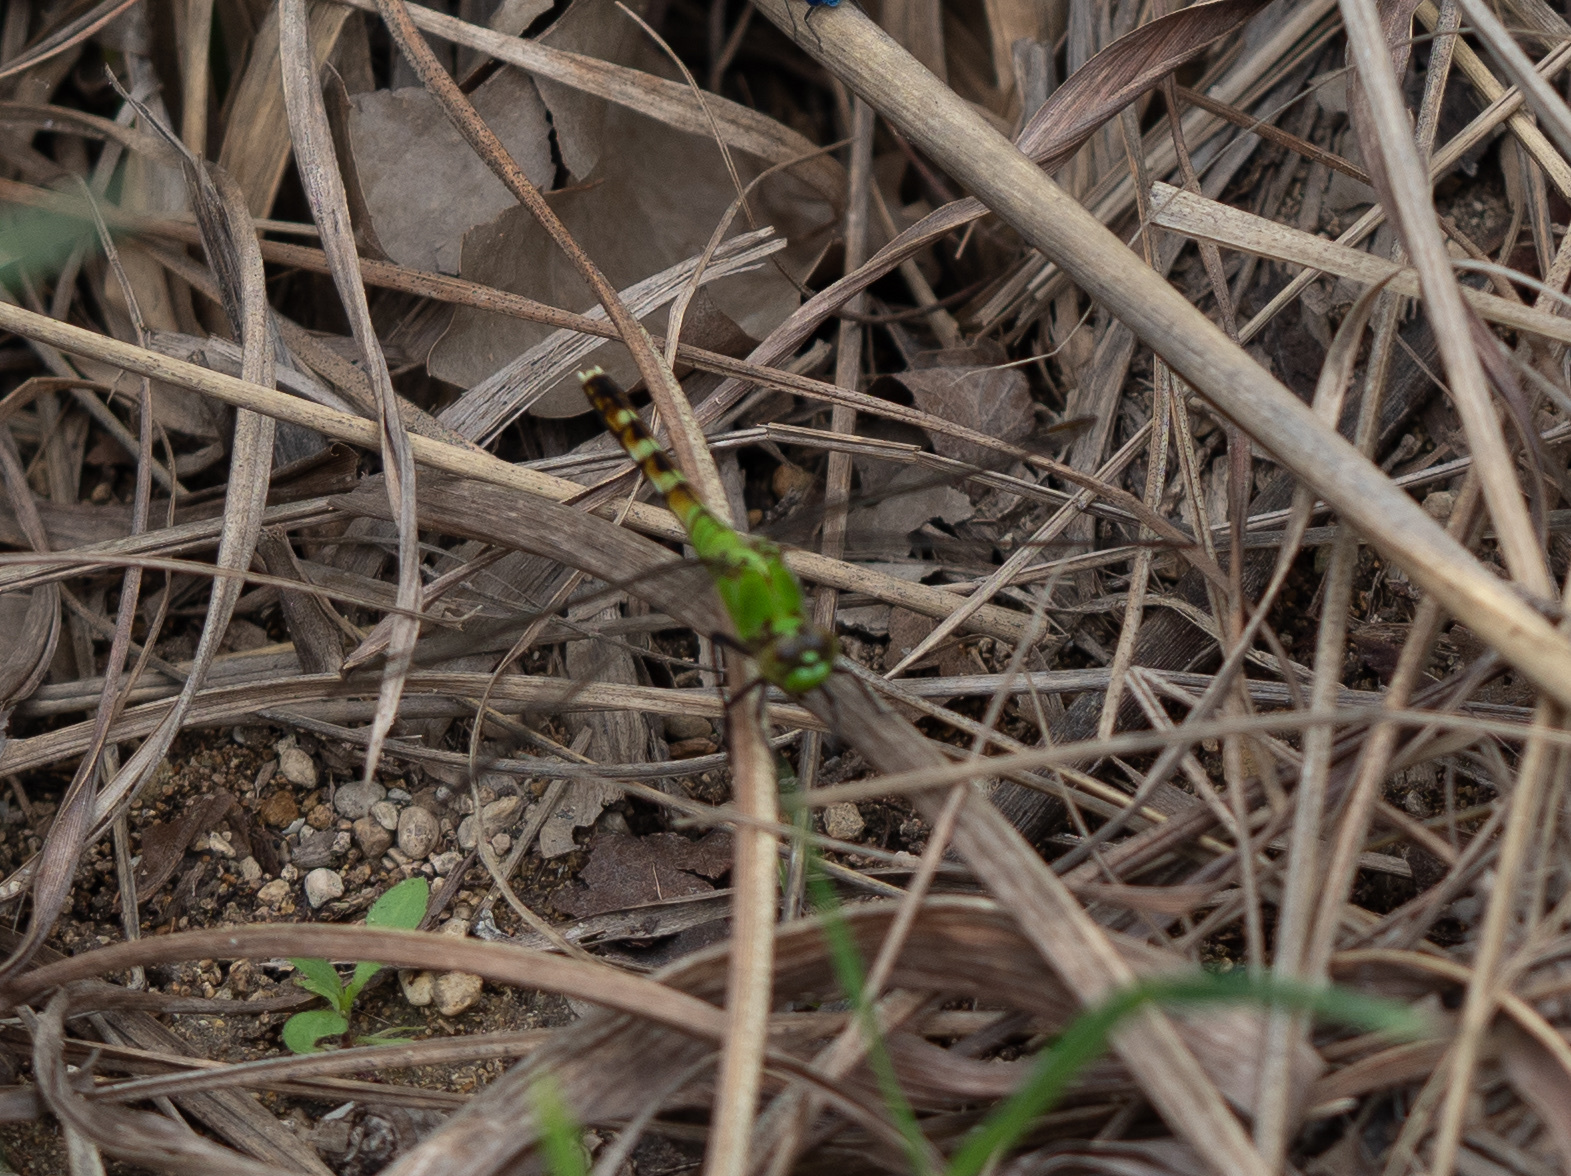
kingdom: Animalia
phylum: Arthropoda
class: Insecta
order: Odonata
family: Libellulidae
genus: Erythemis
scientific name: Erythemis simplicicollis
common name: Eastern pondhawk
